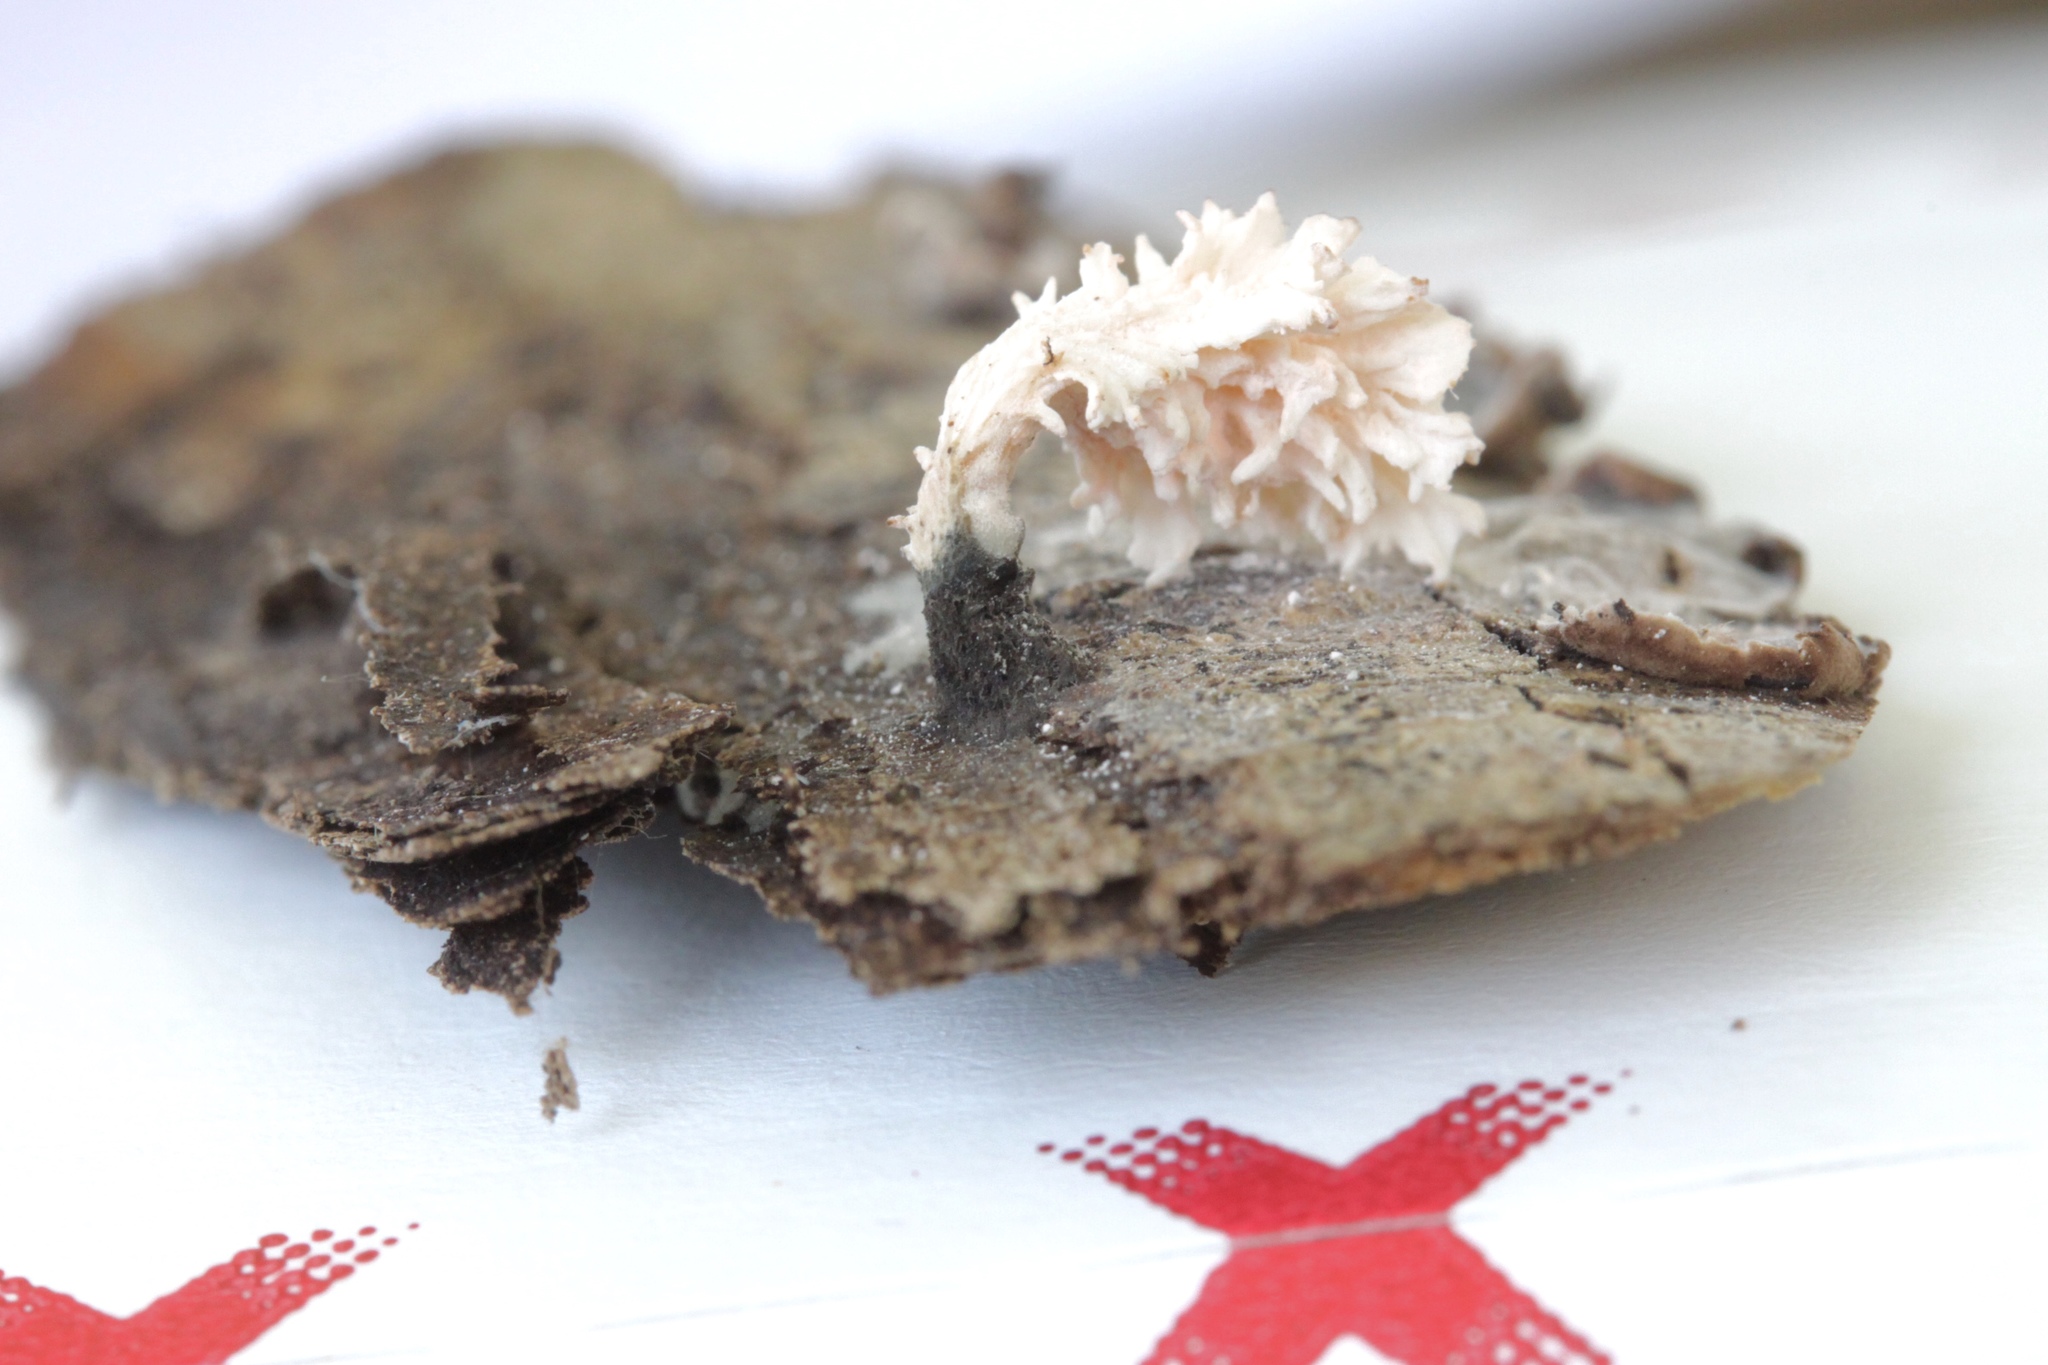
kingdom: Fungi
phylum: Ascomycota
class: Sordariomycetes
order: Xylariales
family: Xylariaceae
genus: Xylaria
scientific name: Xylaria cubensis
